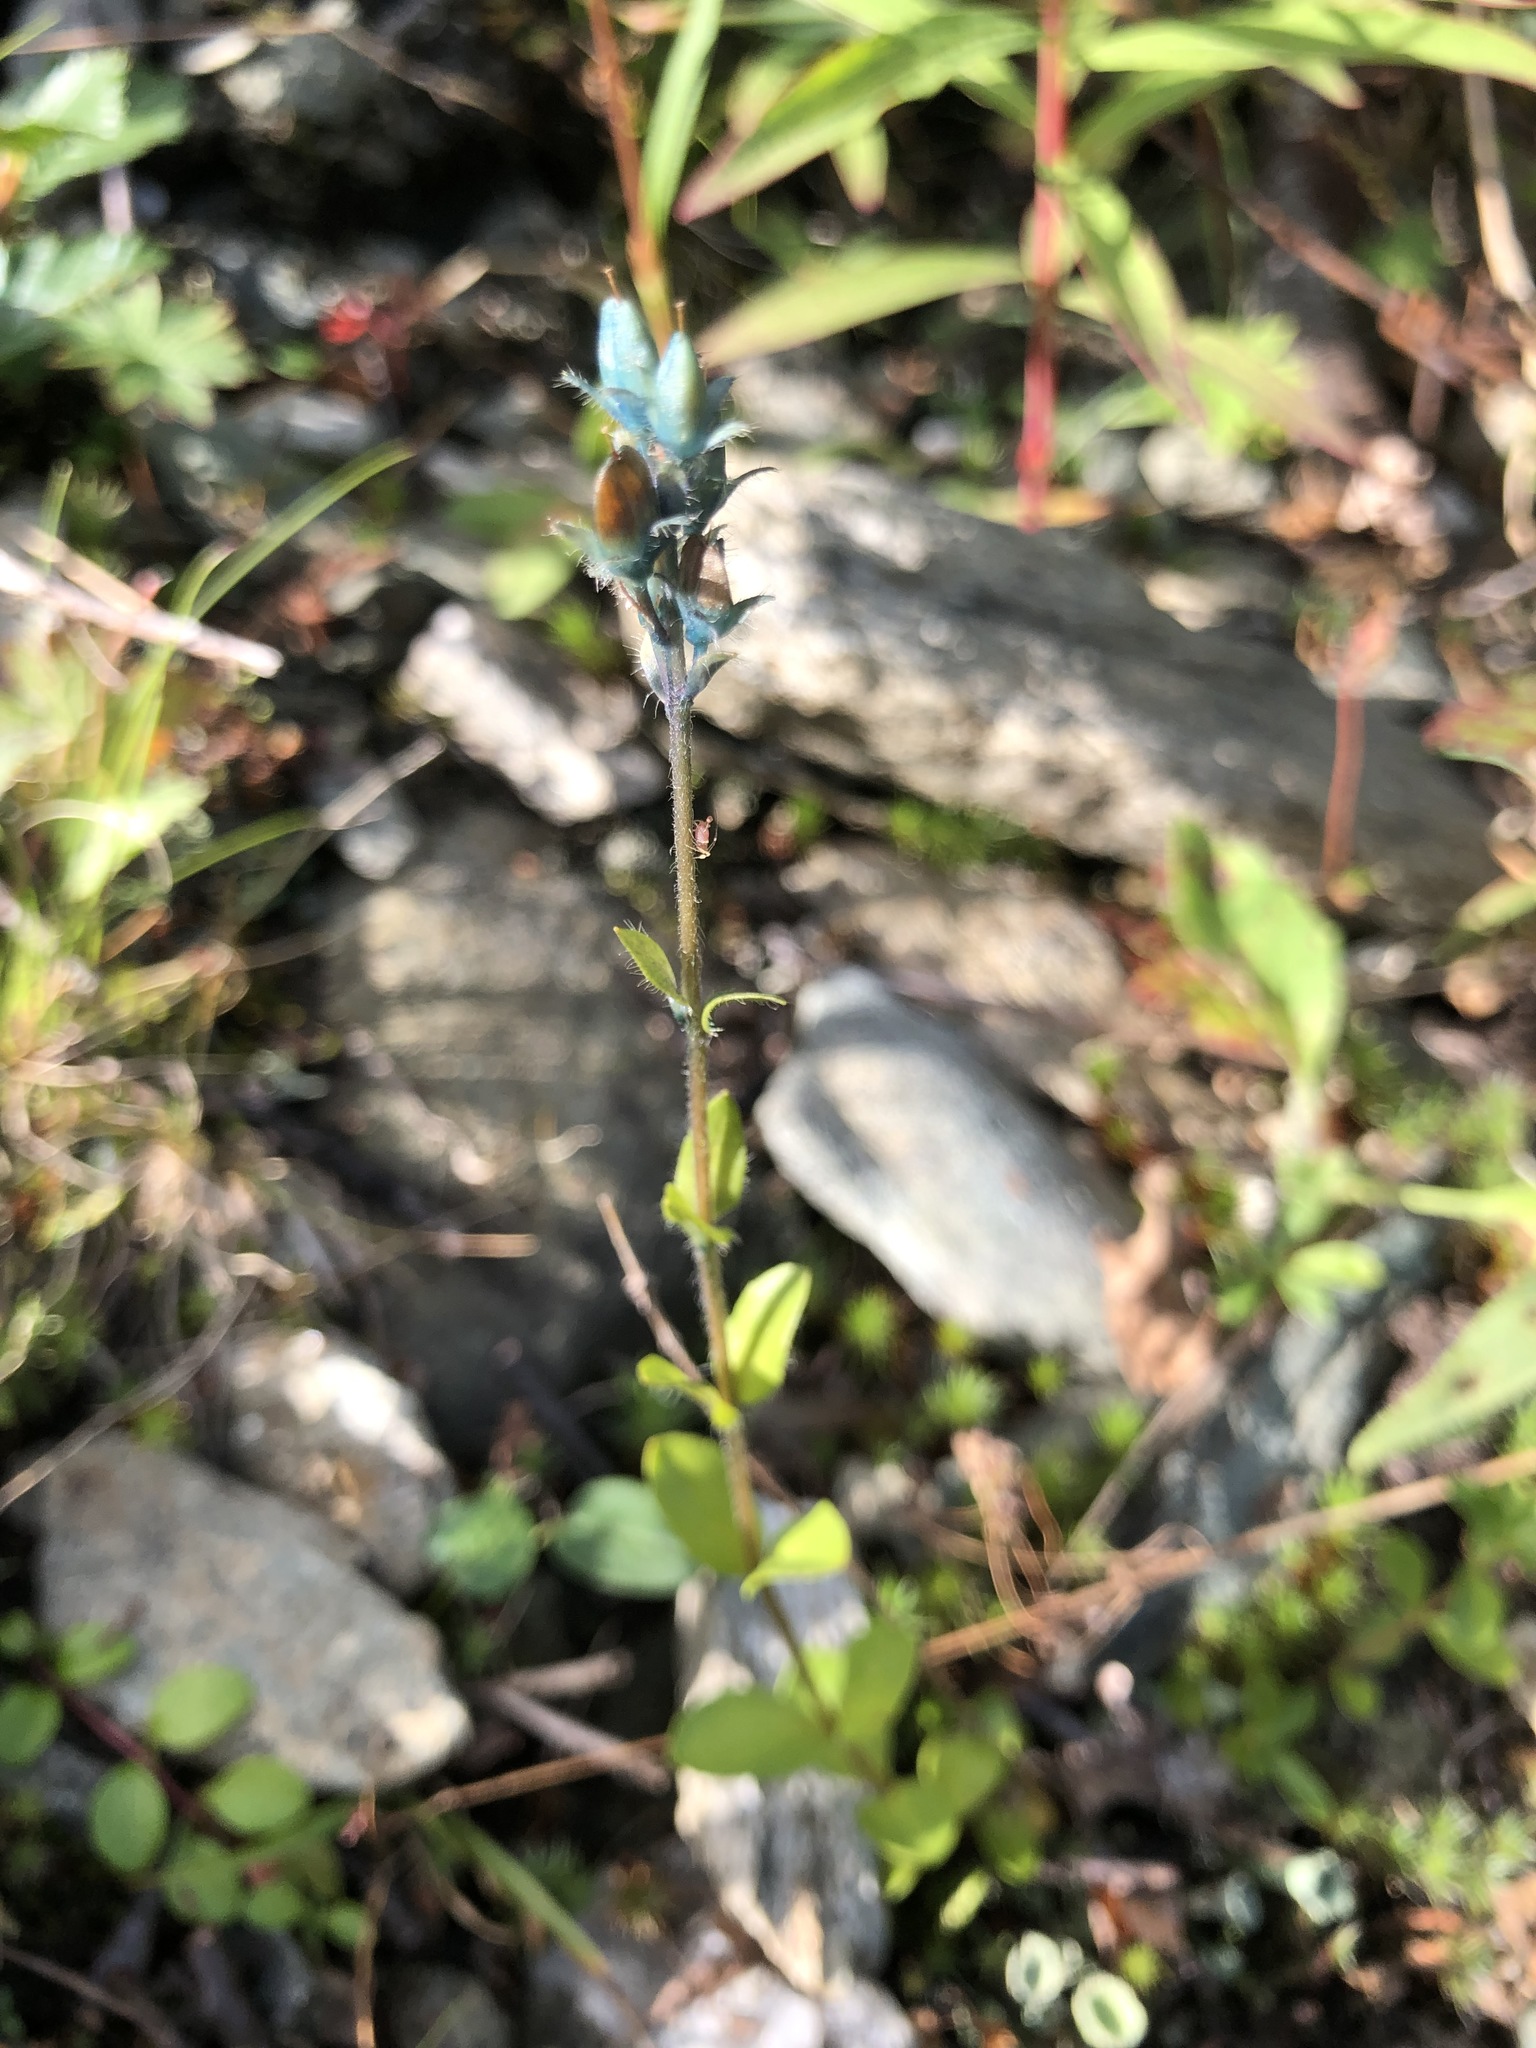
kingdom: Plantae
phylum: Tracheophyta
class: Magnoliopsida
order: Lamiales
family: Plantaginaceae
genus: Veronica
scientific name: Veronica alpina
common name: Alpine speedwell
